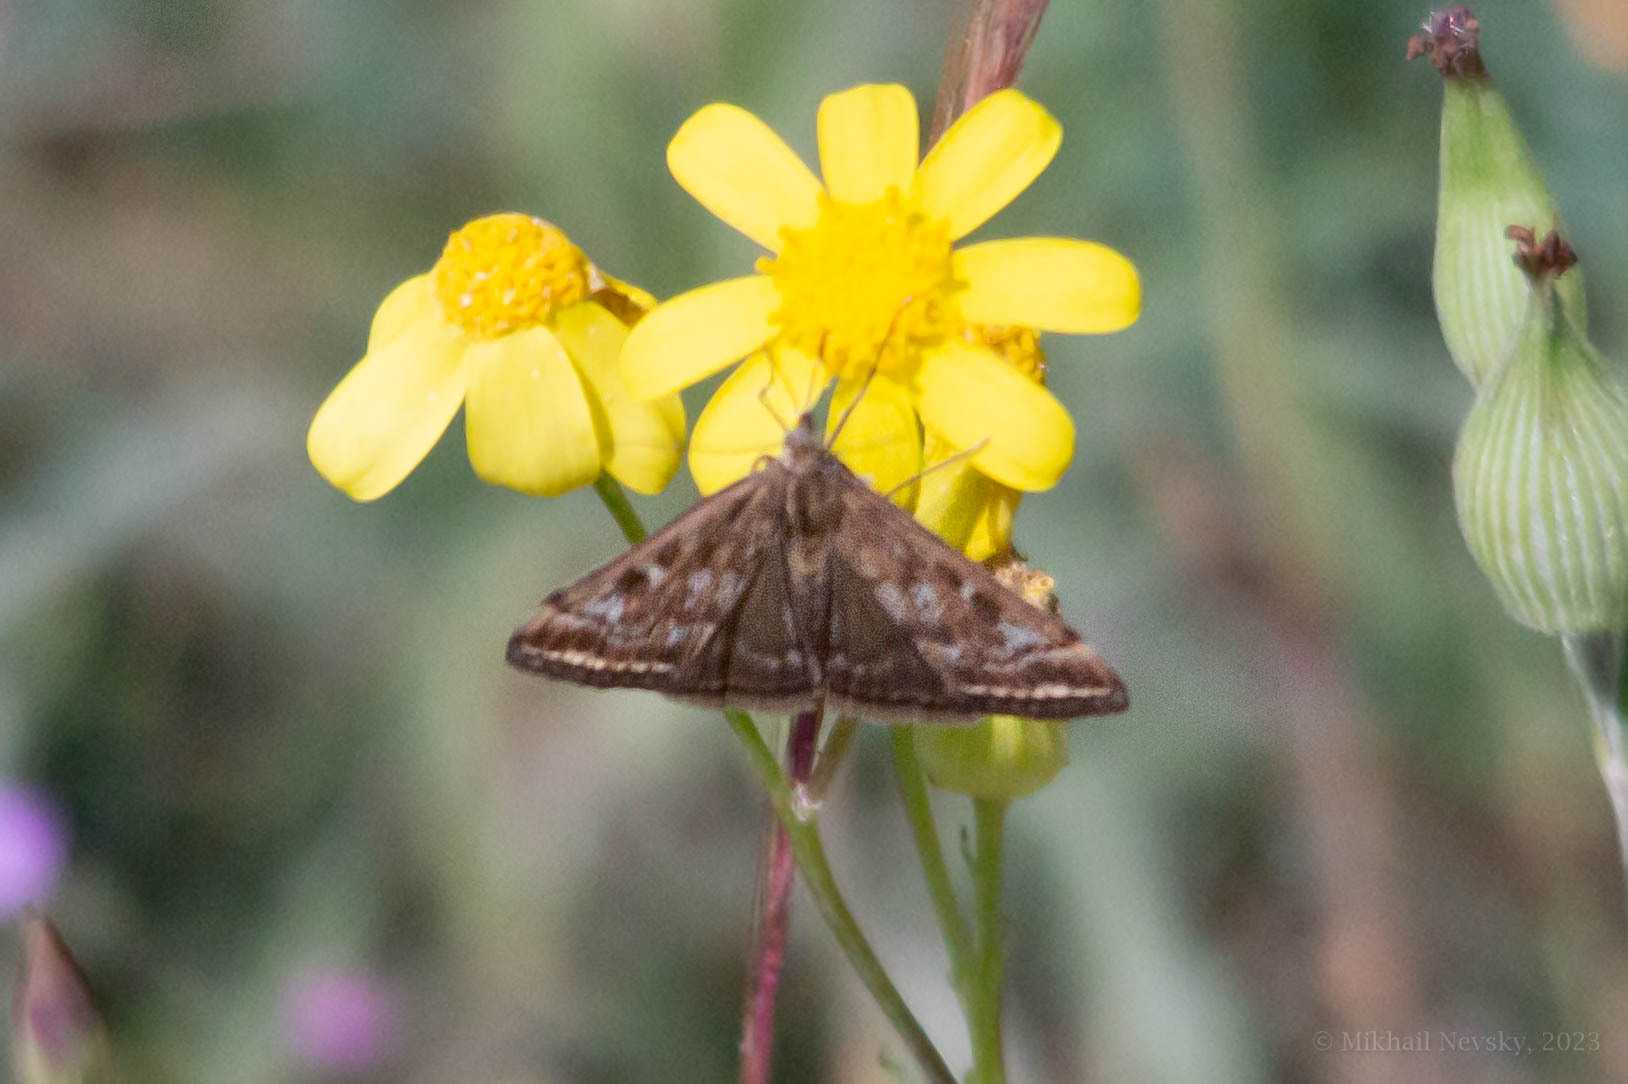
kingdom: Animalia
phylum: Arthropoda
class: Insecta
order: Lepidoptera
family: Crambidae
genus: Loxostege
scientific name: Loxostege sticticalis
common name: Crambid moth
